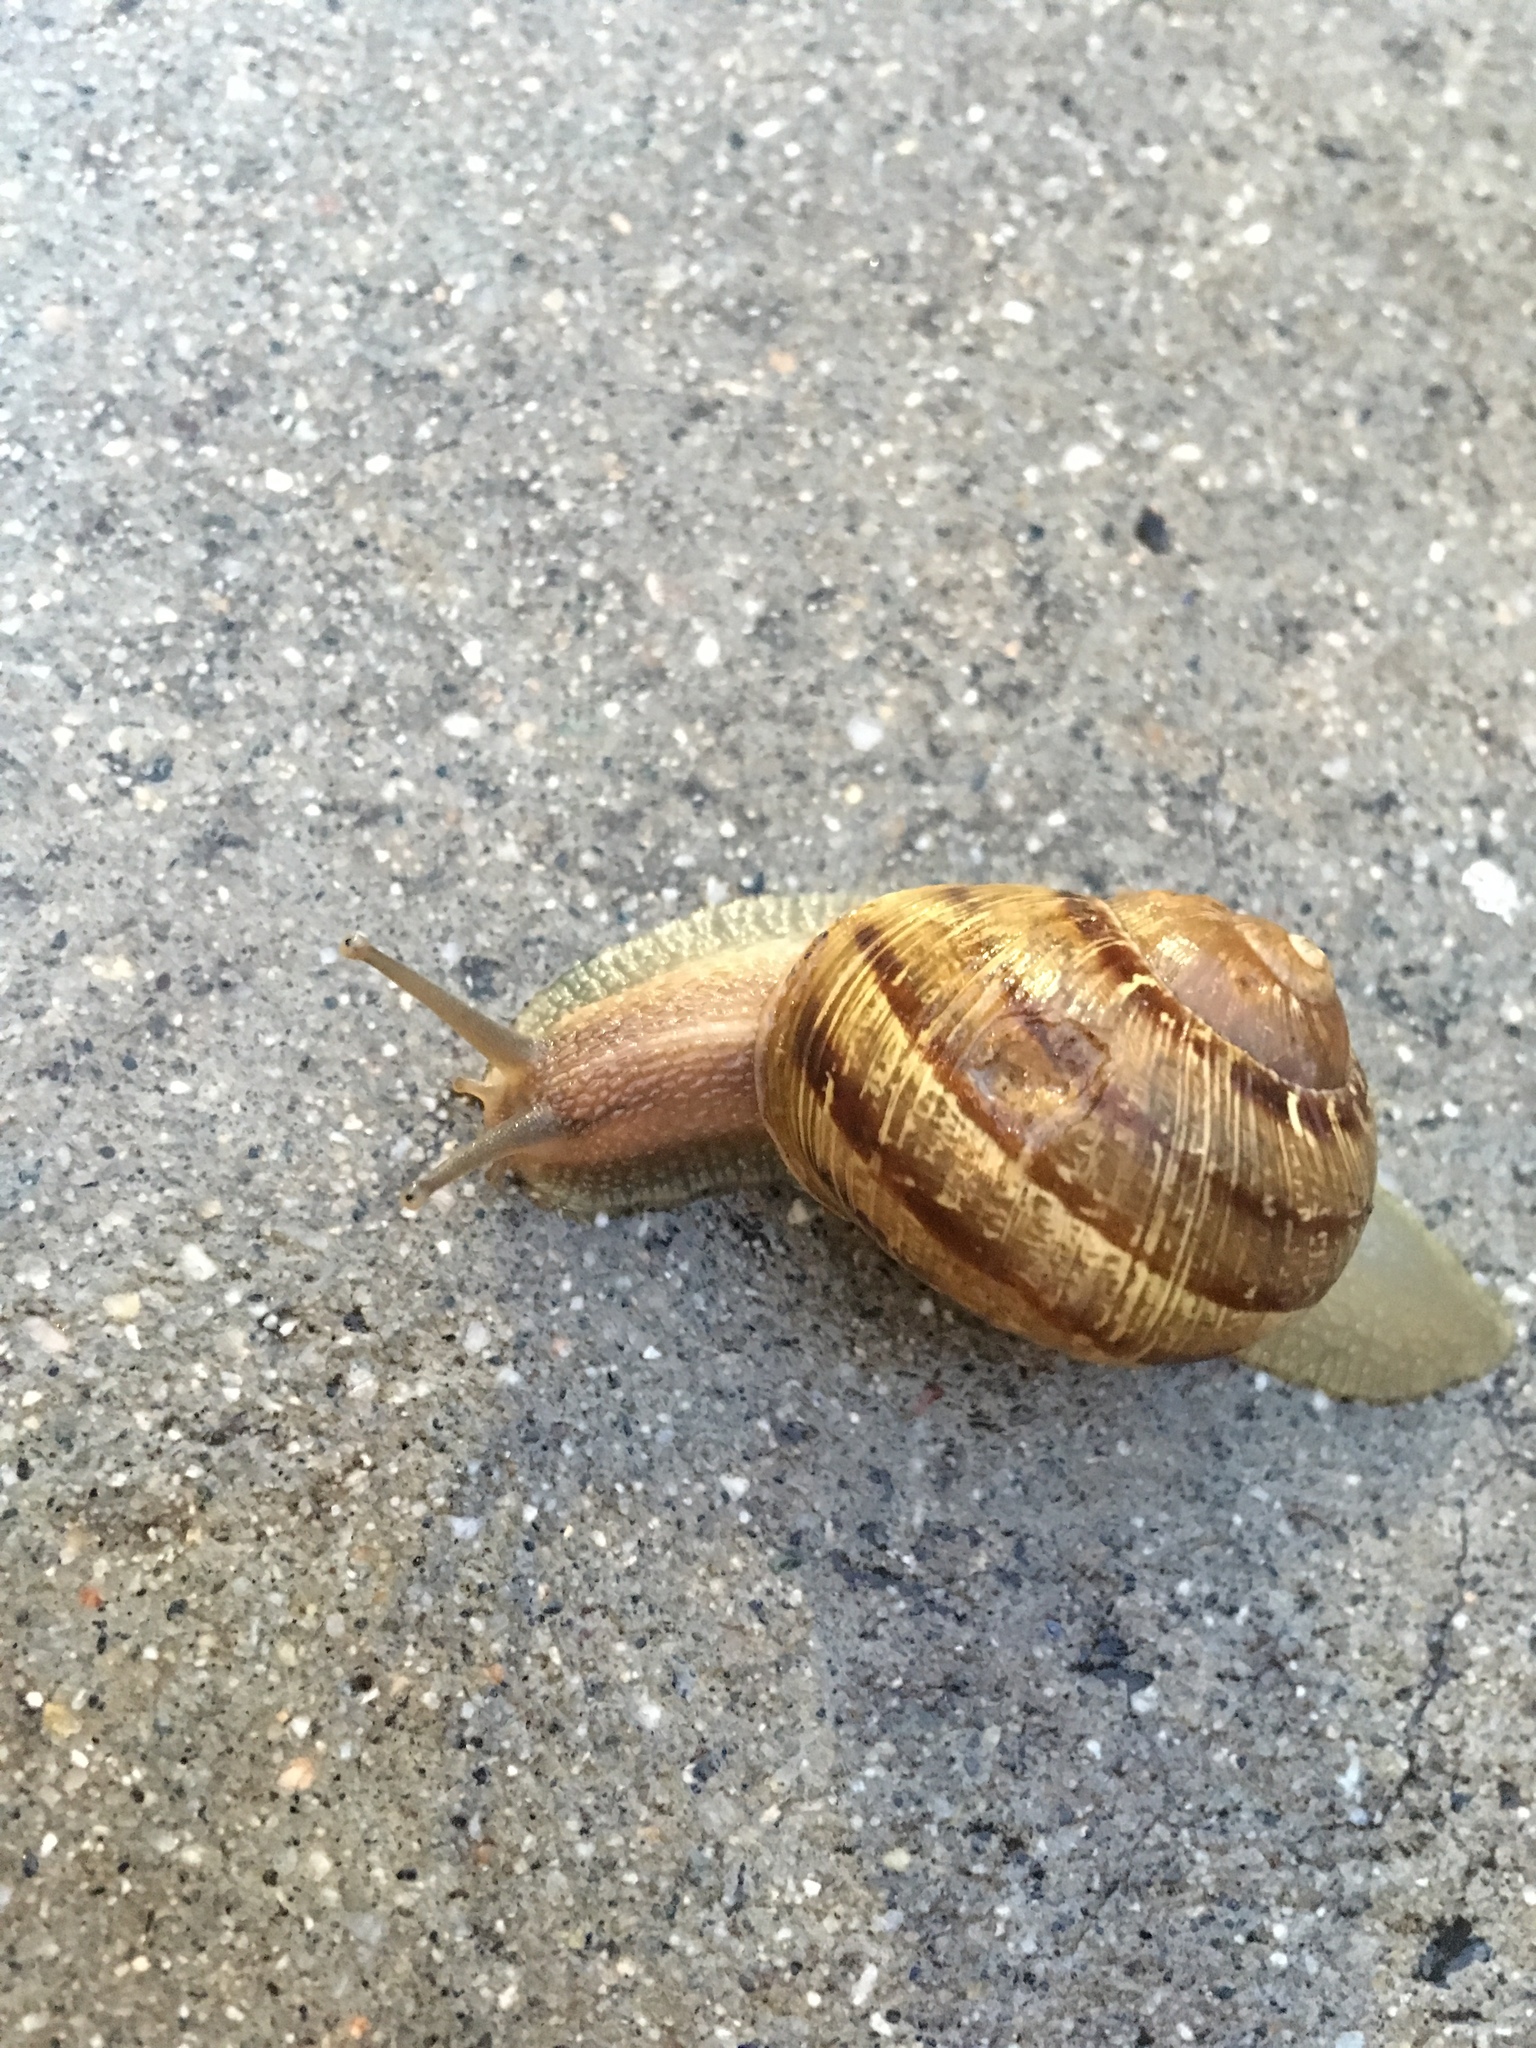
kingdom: Animalia
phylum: Mollusca
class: Gastropoda
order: Stylommatophora
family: Helicidae
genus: Cornu
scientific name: Cornu aspersum
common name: Brown garden snail
